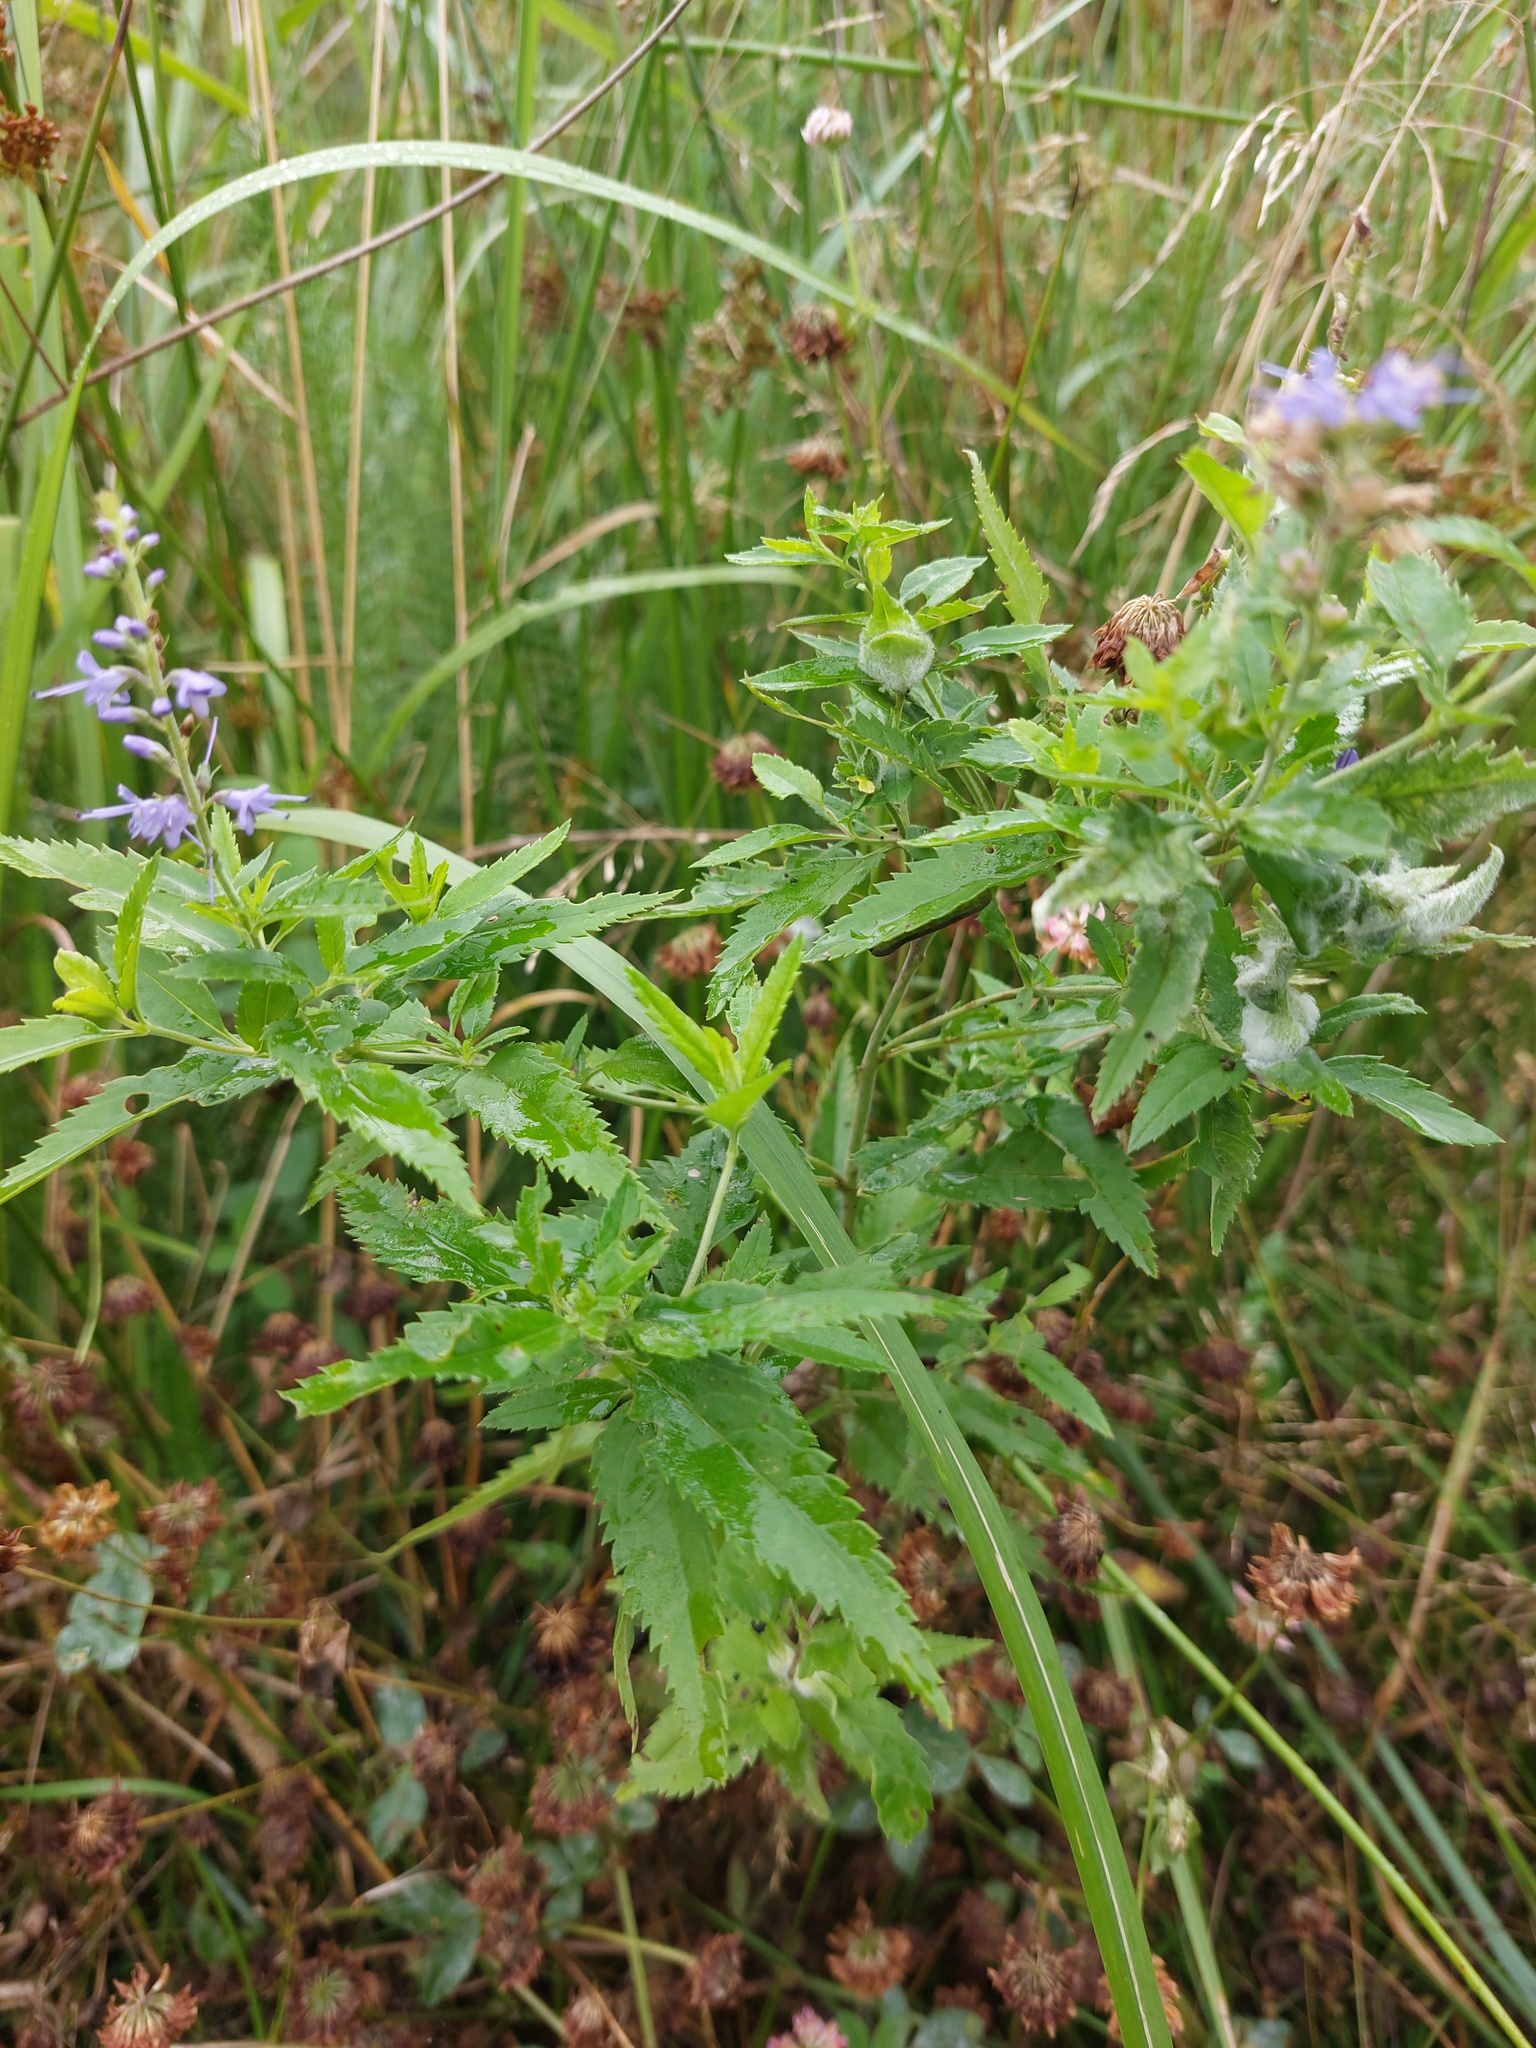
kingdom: Plantae
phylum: Tracheophyta
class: Magnoliopsida
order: Lamiales
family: Plantaginaceae
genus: Veronica
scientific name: Veronica longifolia
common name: Garden speedwell
